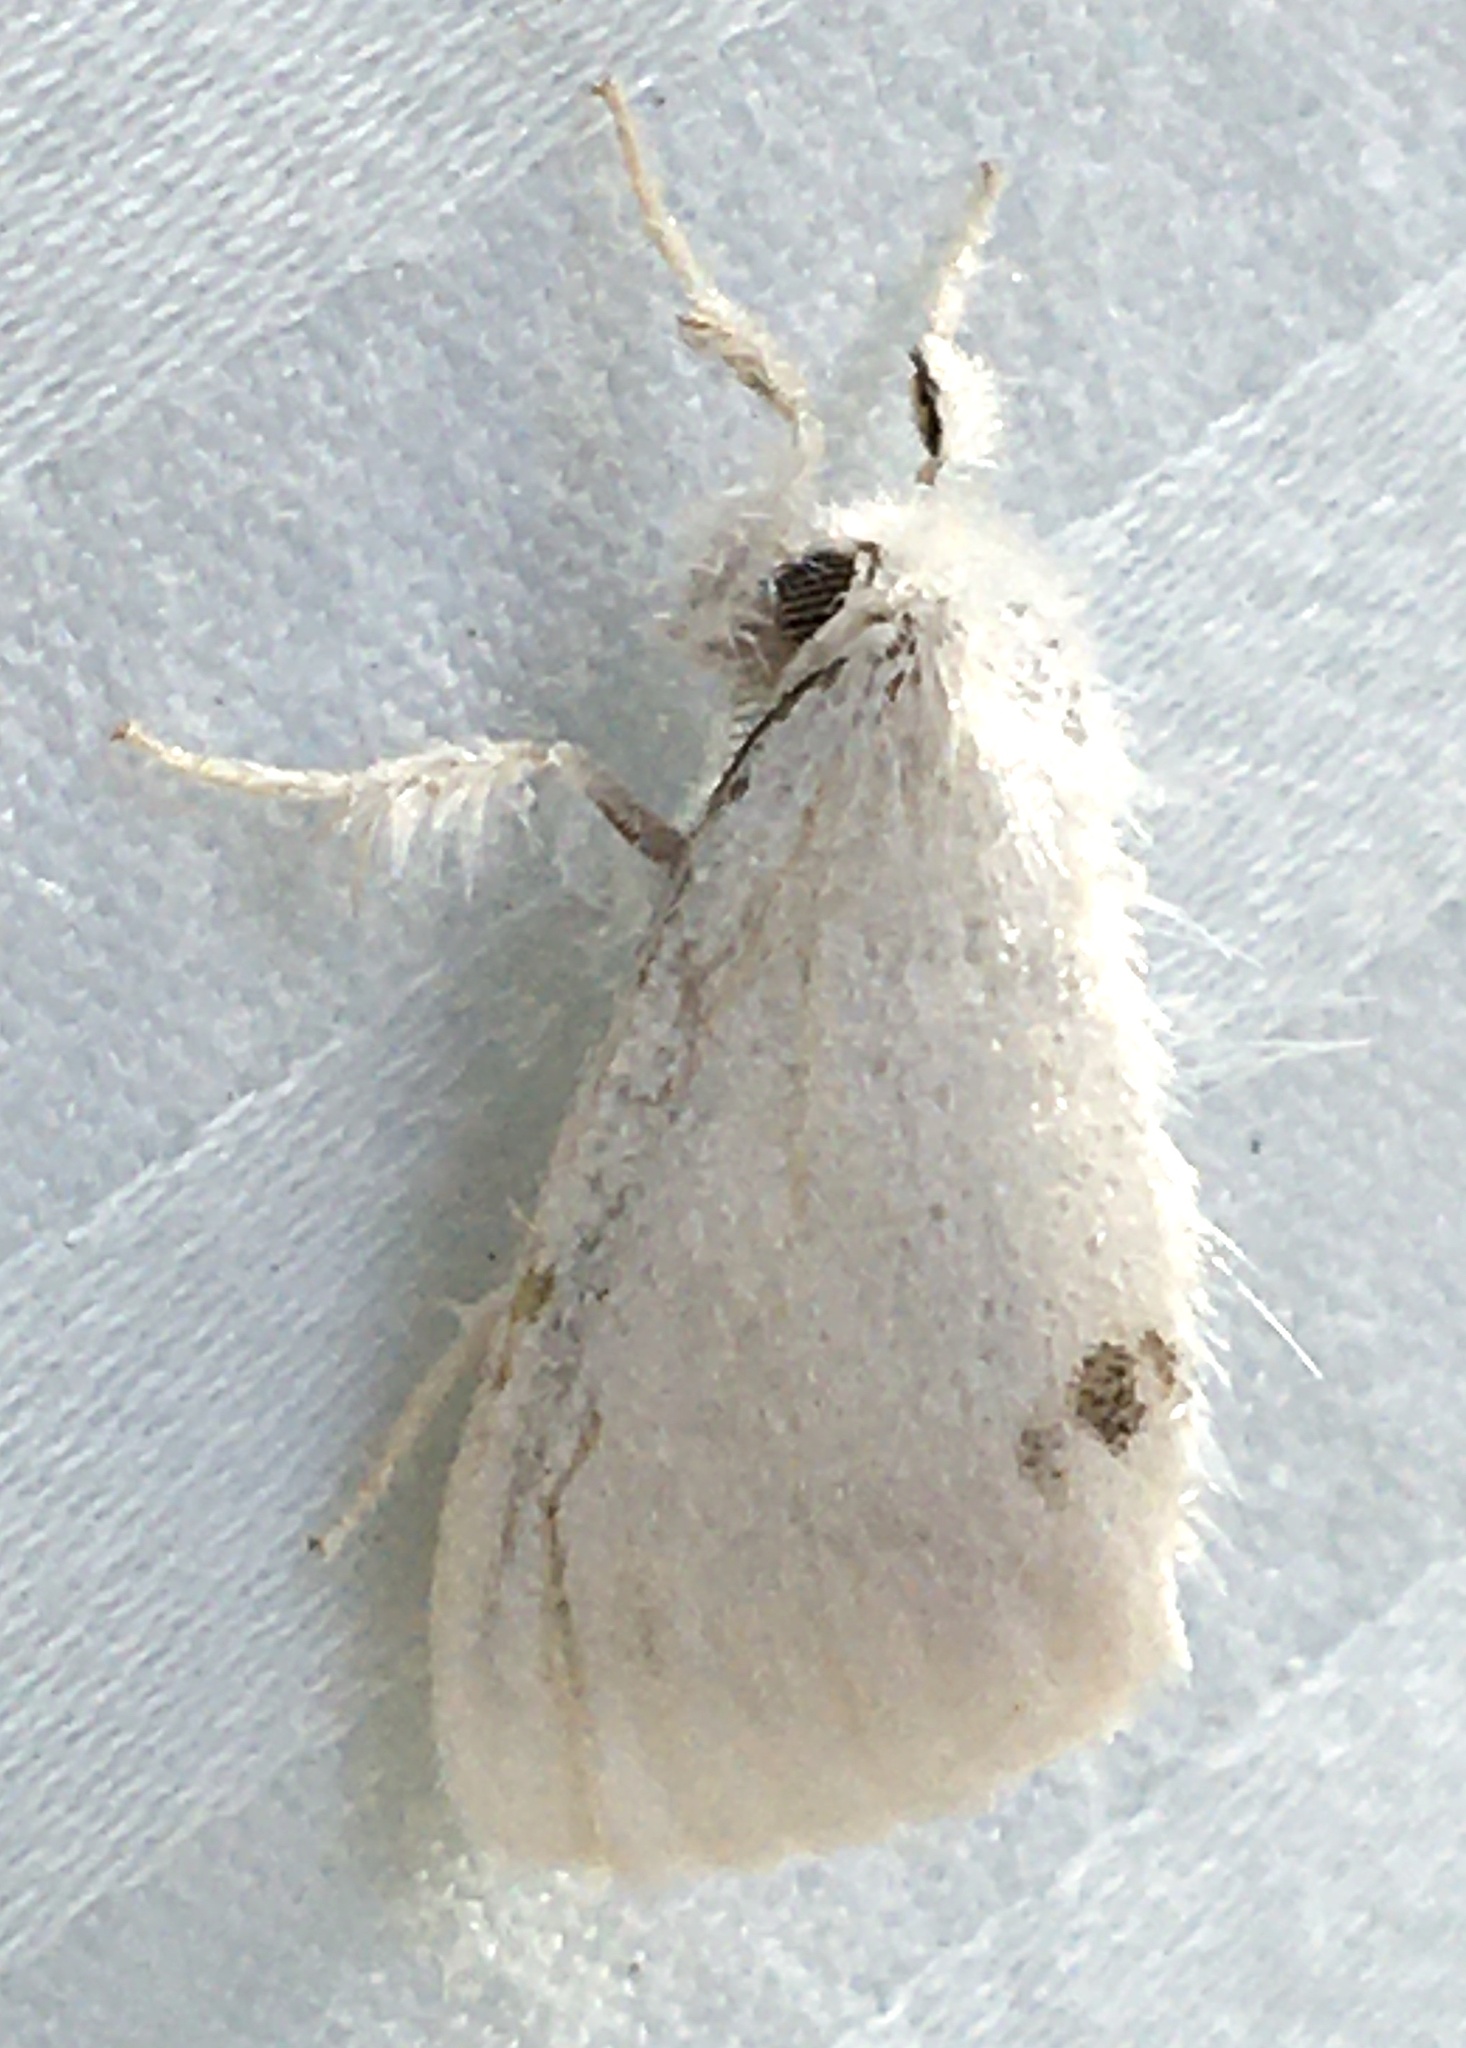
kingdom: Animalia
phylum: Arthropoda
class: Insecta
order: Lepidoptera
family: Erebidae
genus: Sphrageidus
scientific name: Sphrageidus similis
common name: Yellow-tail
